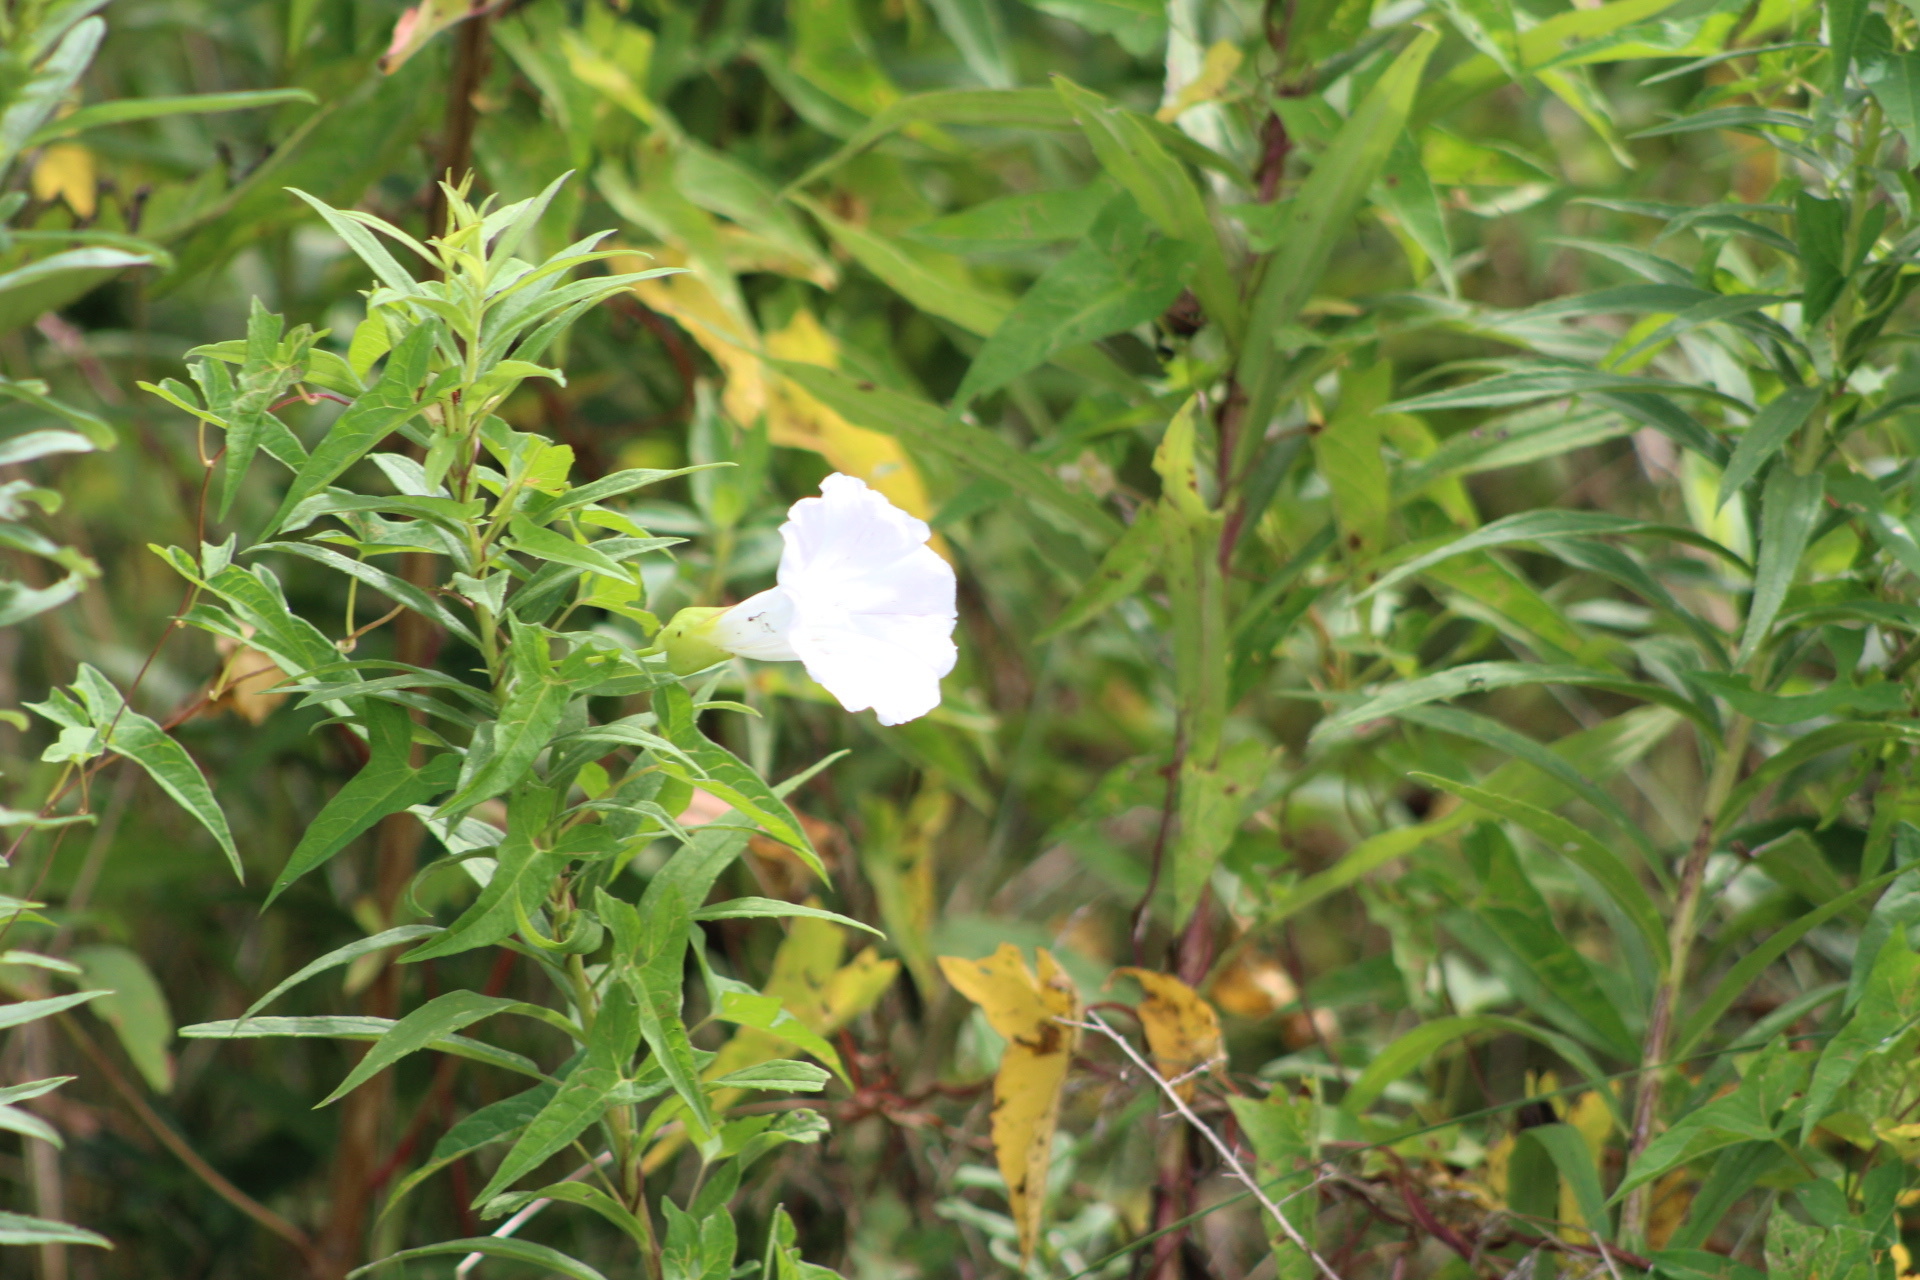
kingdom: Plantae
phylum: Tracheophyta
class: Magnoliopsida
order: Solanales
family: Convolvulaceae
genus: Calystegia
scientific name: Calystegia sepium
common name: Hedge bindweed
